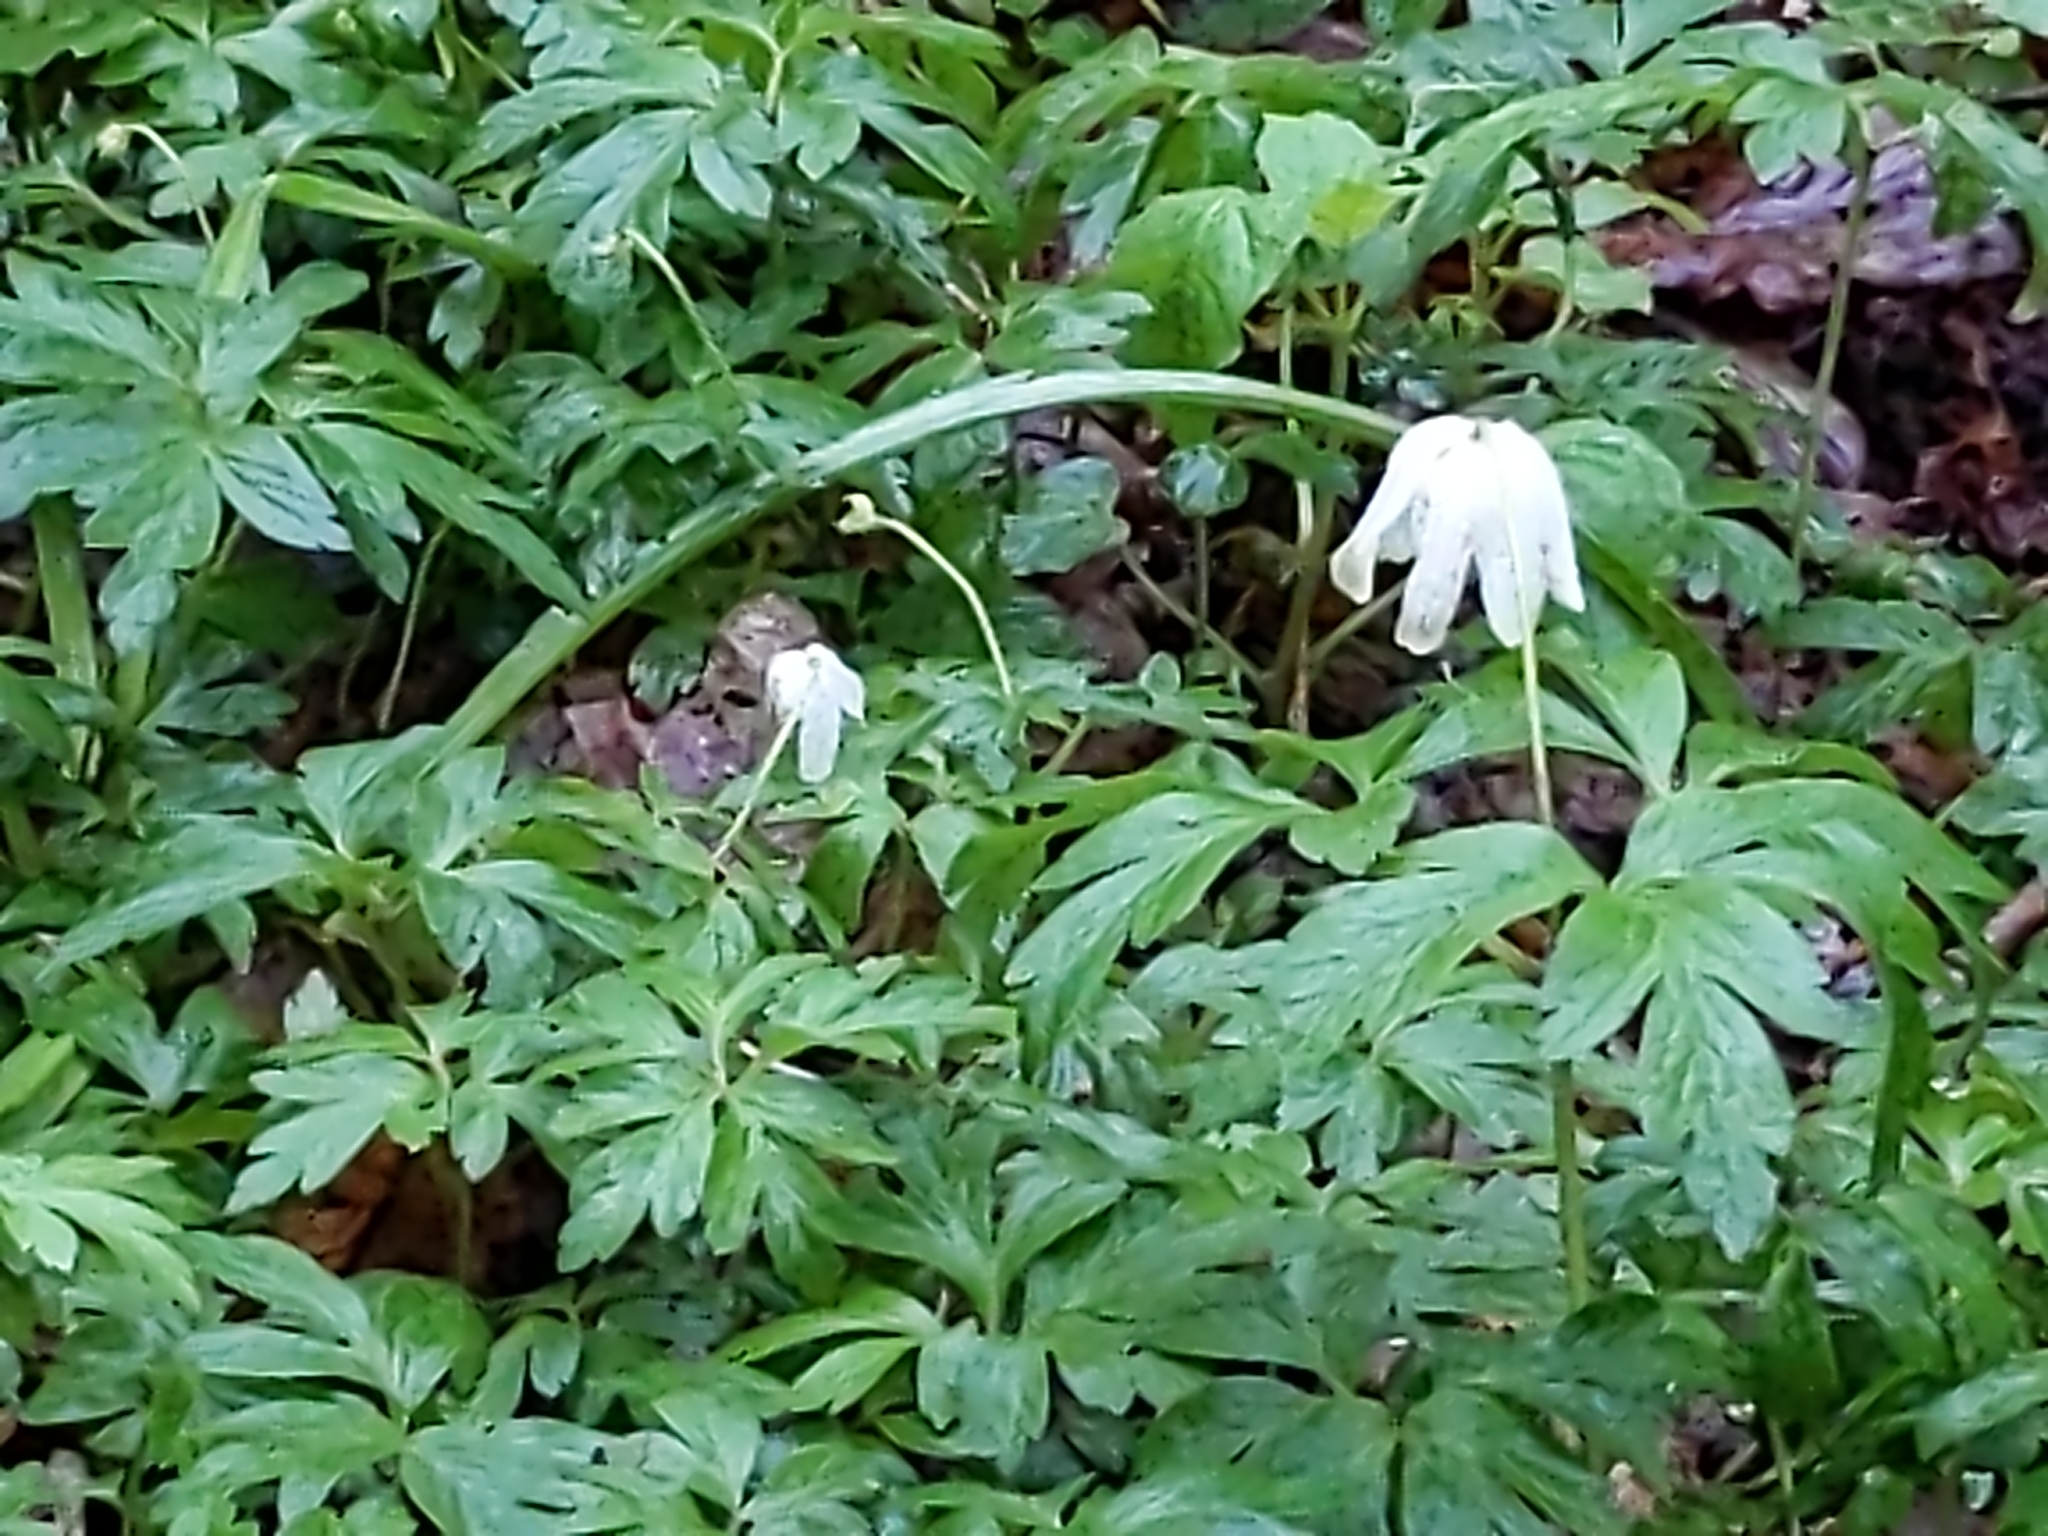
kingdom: Plantae
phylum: Tracheophyta
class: Magnoliopsida
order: Ranunculales
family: Ranunculaceae
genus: Anemone
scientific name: Anemone nemorosa
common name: Wood anemone
